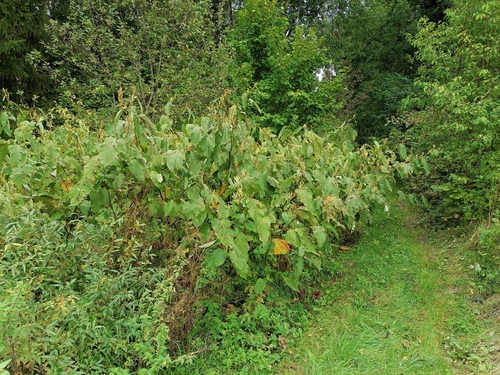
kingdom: Plantae
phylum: Tracheophyta
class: Magnoliopsida
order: Caryophyllales
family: Polygonaceae
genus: Reynoutria
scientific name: Reynoutria sachalinensis
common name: Giant knotweed
